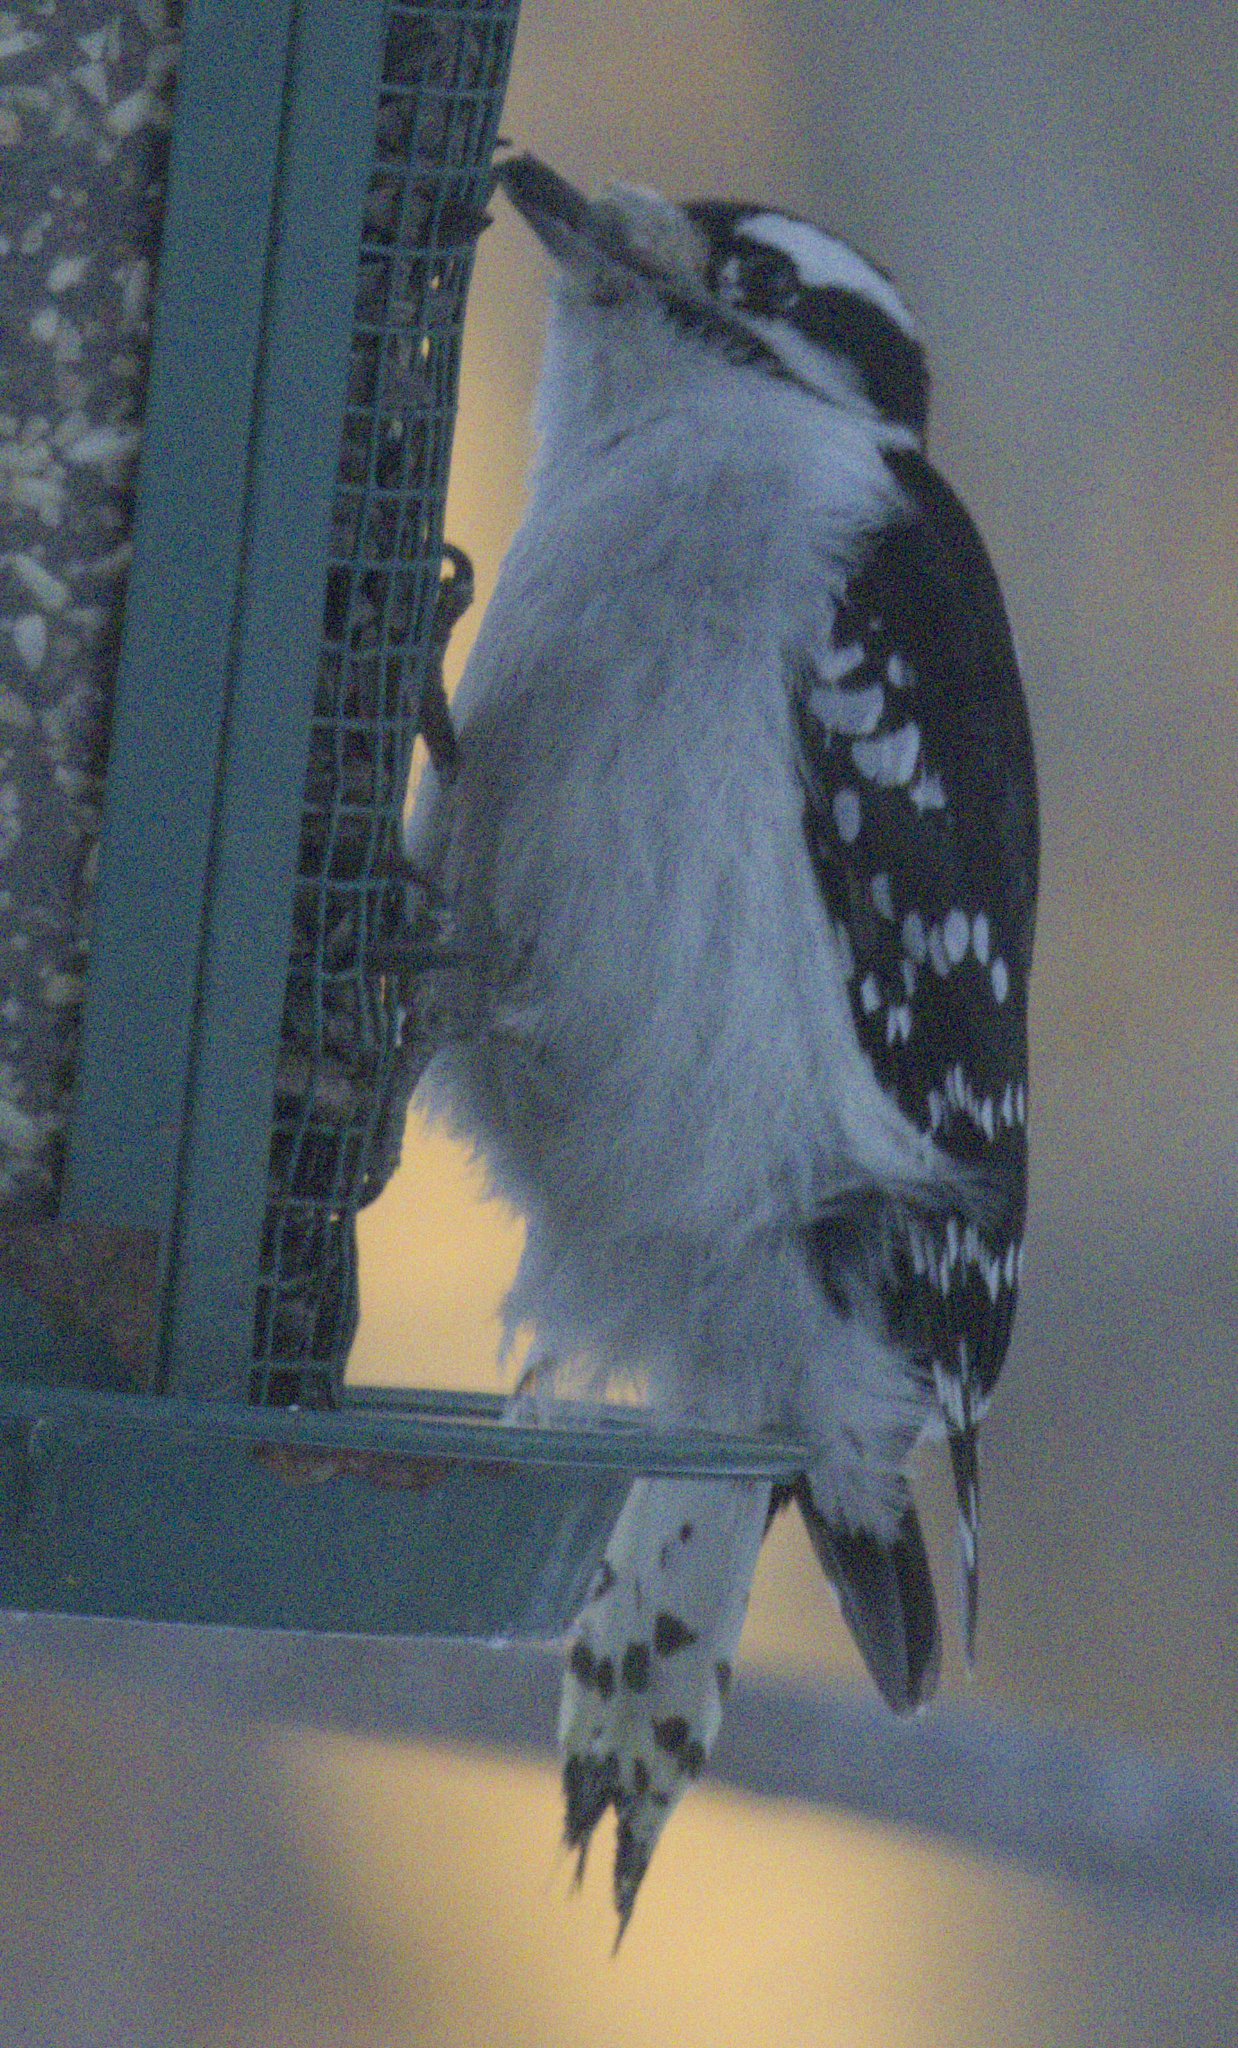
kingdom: Animalia
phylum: Chordata
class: Aves
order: Piciformes
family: Picidae
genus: Dryobates
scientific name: Dryobates pubescens
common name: Downy woodpecker
